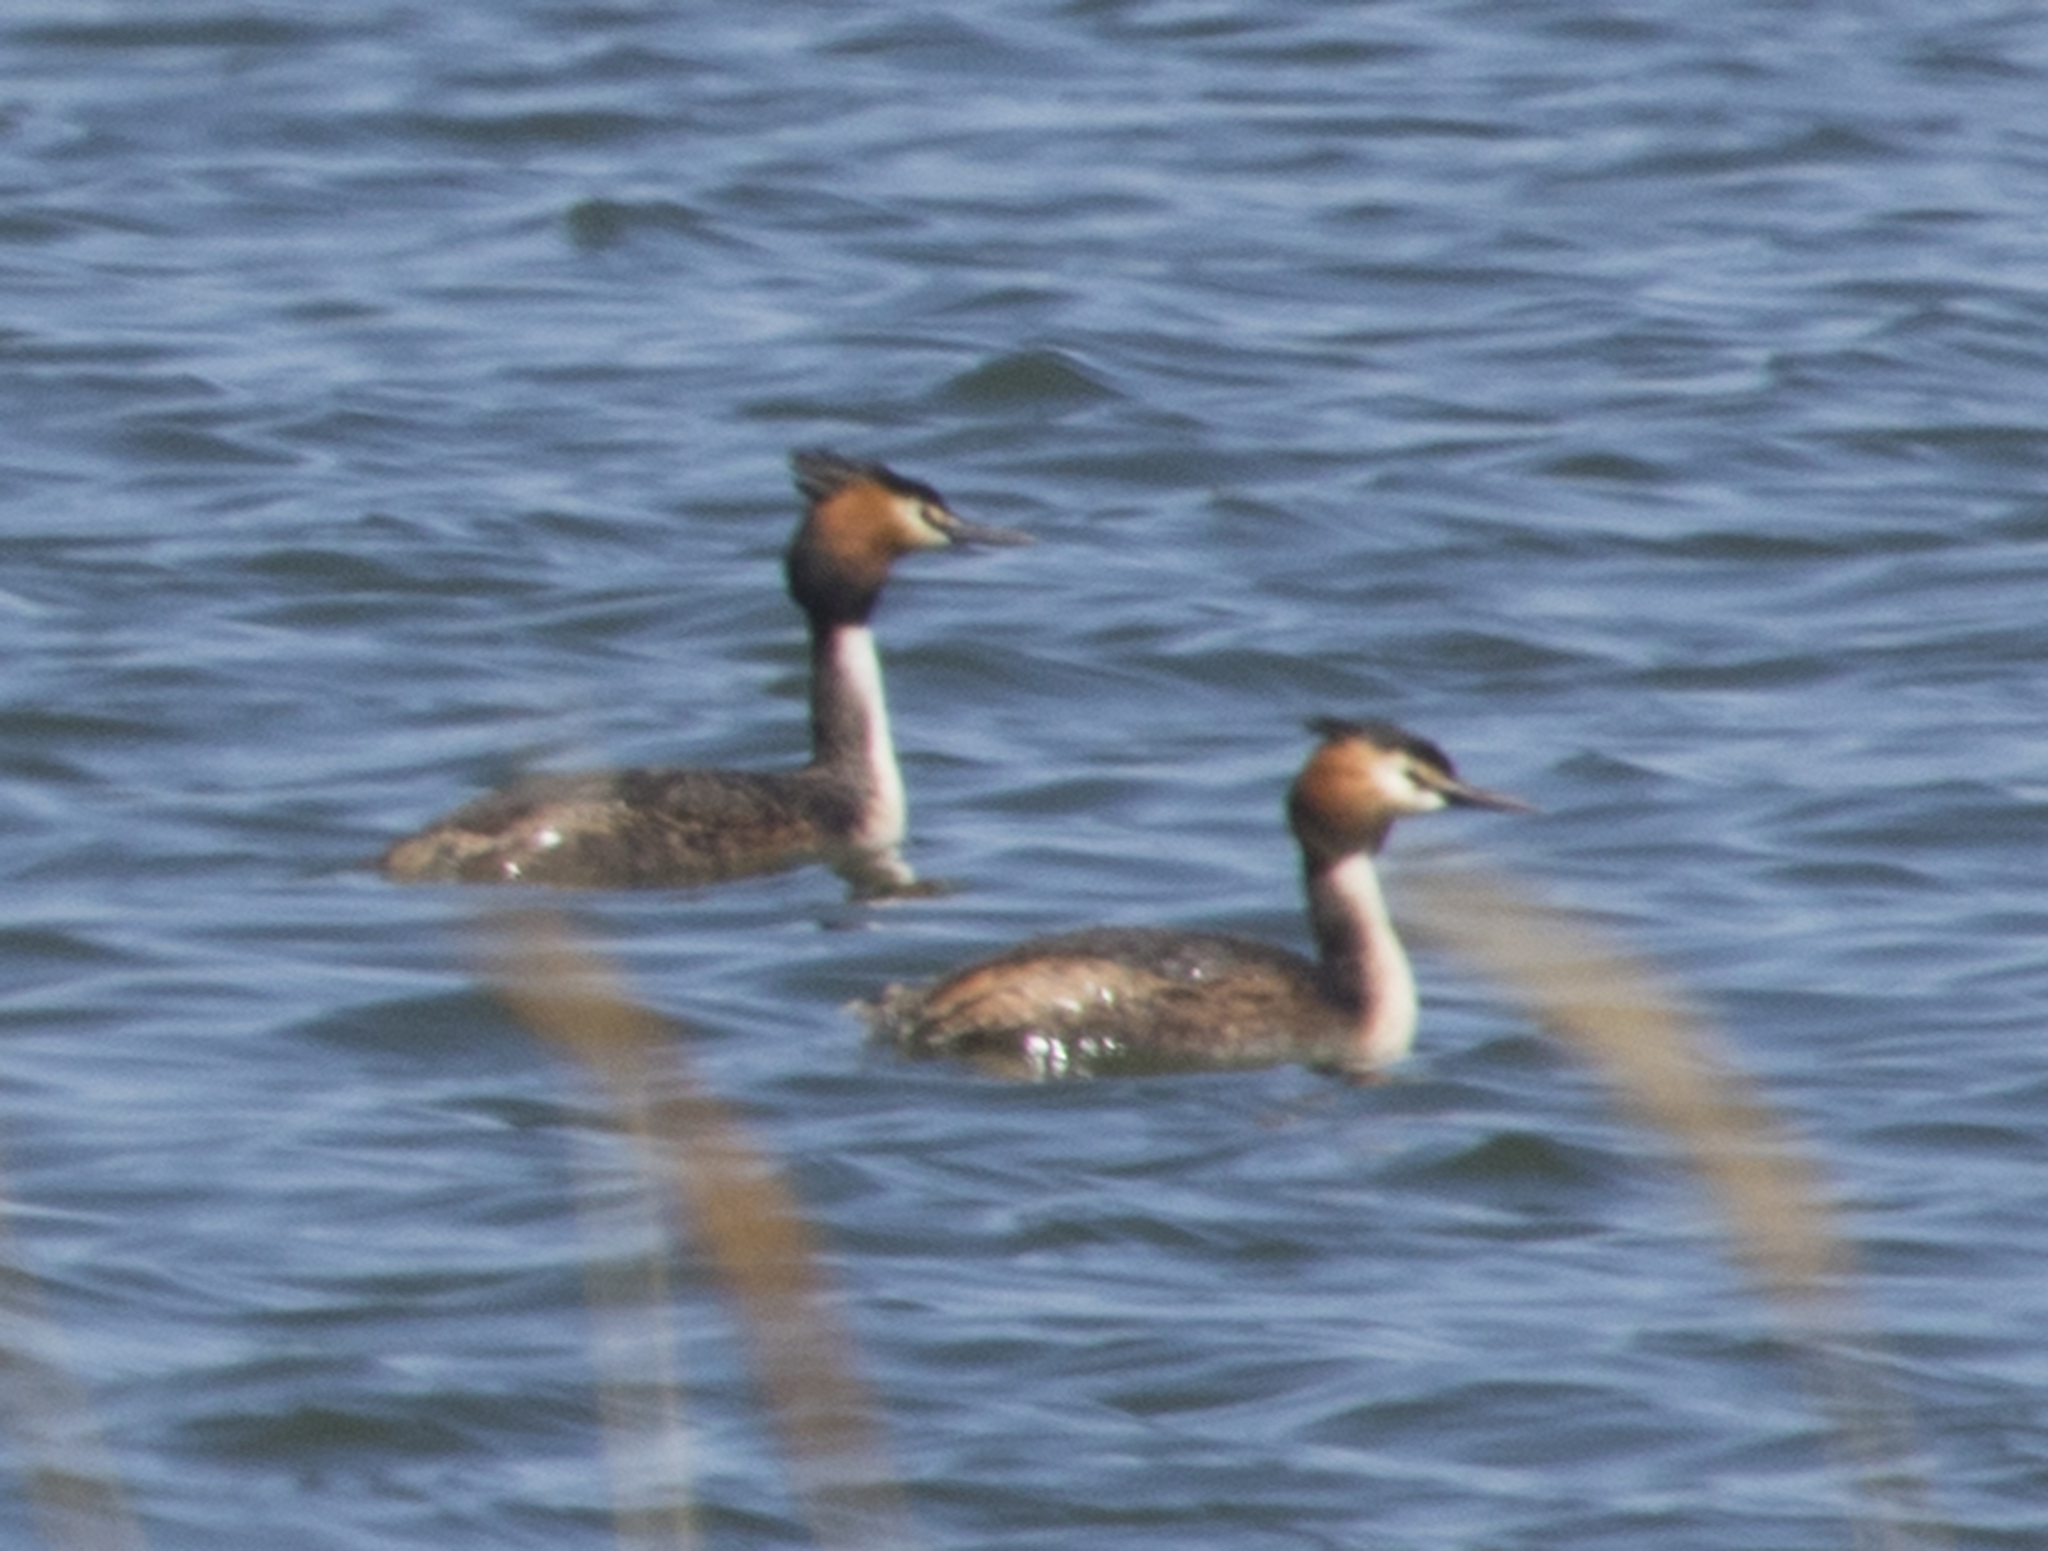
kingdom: Animalia
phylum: Chordata
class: Aves
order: Podicipediformes
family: Podicipedidae
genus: Podiceps
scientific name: Podiceps cristatus
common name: Great crested grebe
